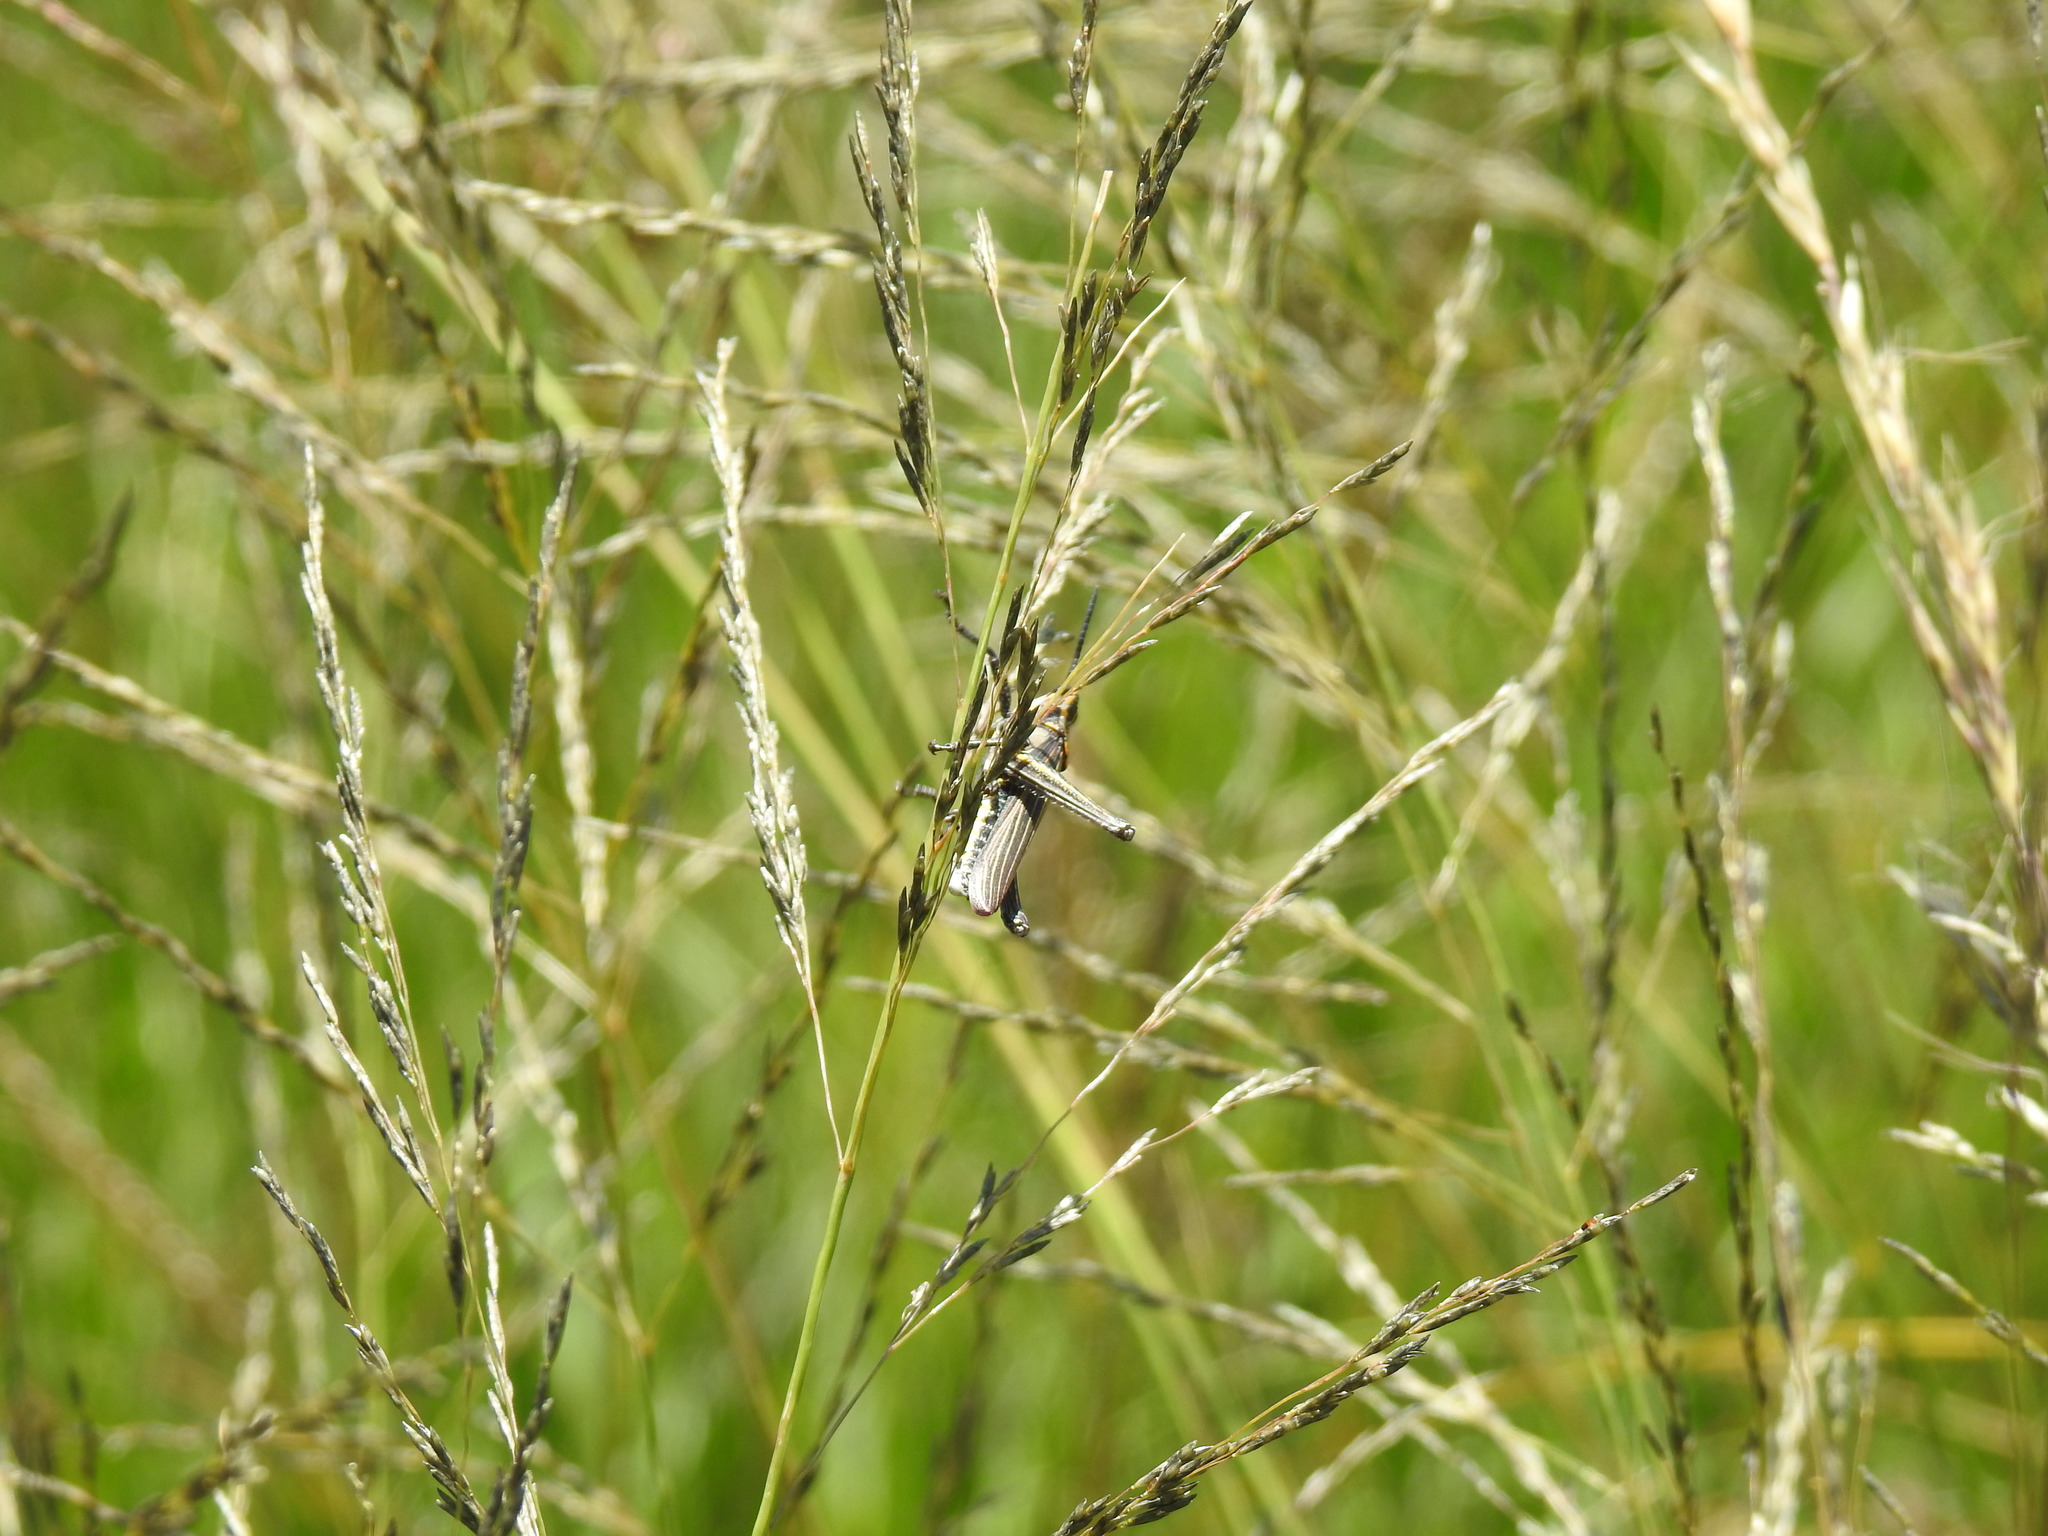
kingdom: Animalia
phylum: Arthropoda
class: Insecta
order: Orthoptera
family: Pyrgomorphidae
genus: Ochrophlegma
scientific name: Ochrophlegma vittifera
